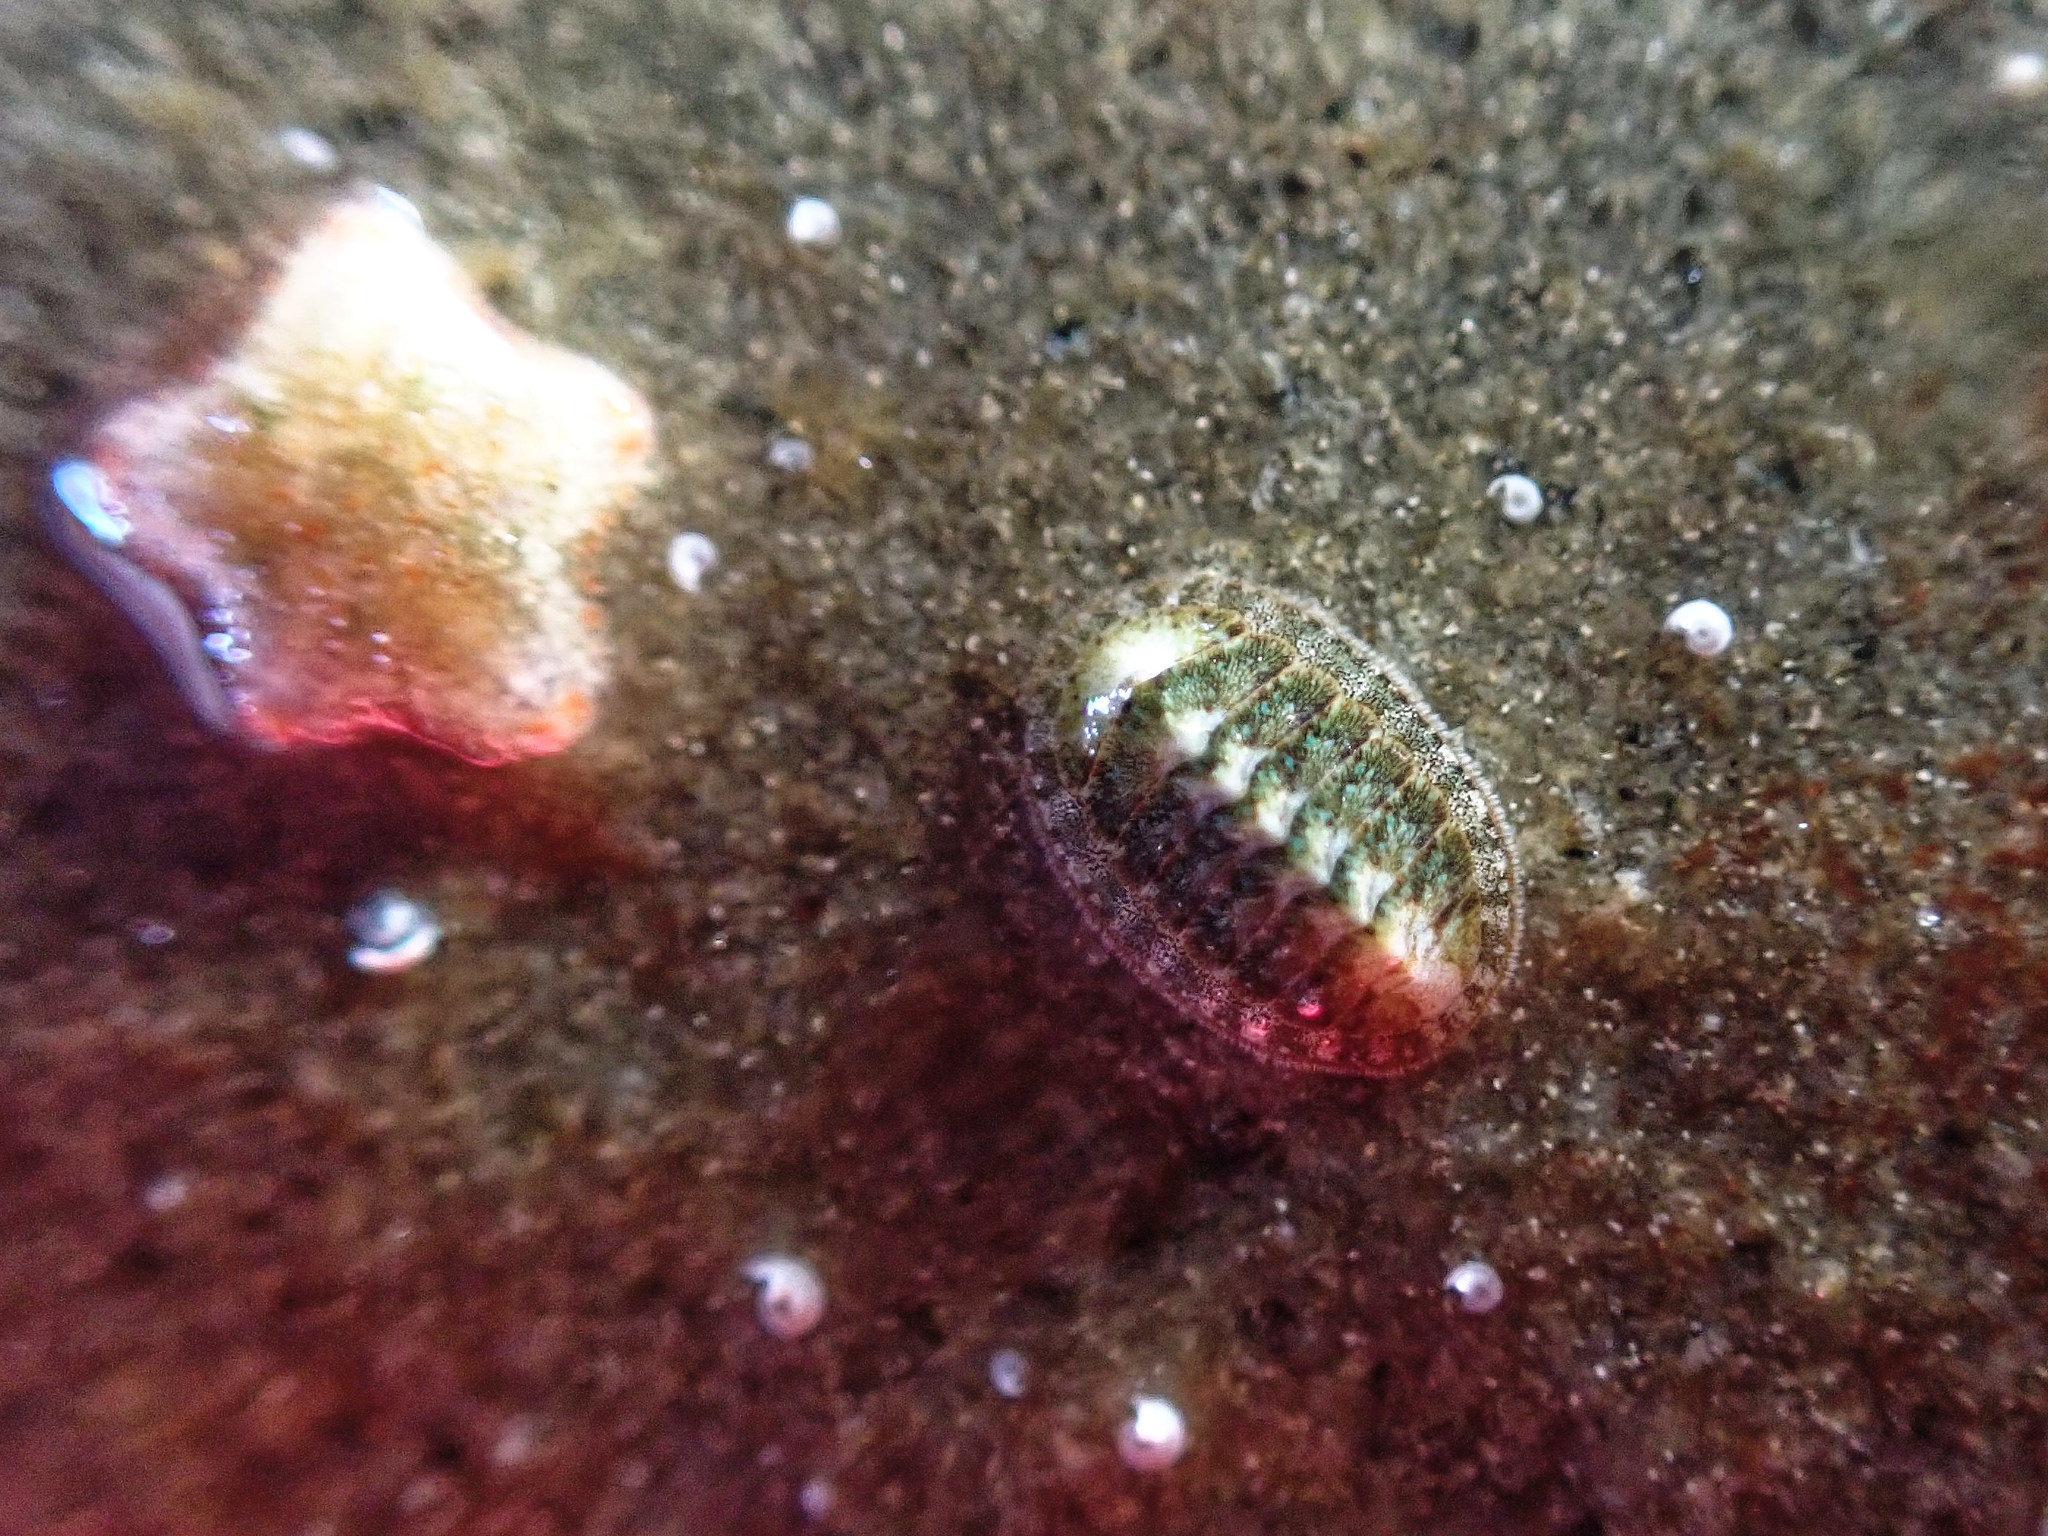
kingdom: Animalia
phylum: Echinodermata
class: Asteroidea
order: Valvatida
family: Asterinidae
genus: Asterina
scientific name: Asterina phylactica
